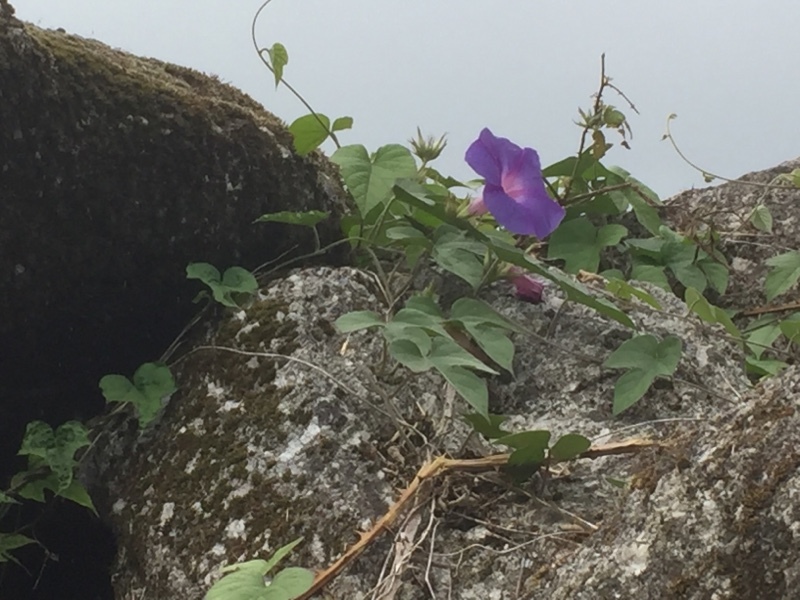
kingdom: Plantae
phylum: Tracheophyta
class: Magnoliopsida
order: Solanales
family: Convolvulaceae
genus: Ipomoea
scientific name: Ipomoea indica
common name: Blue dawnflower
